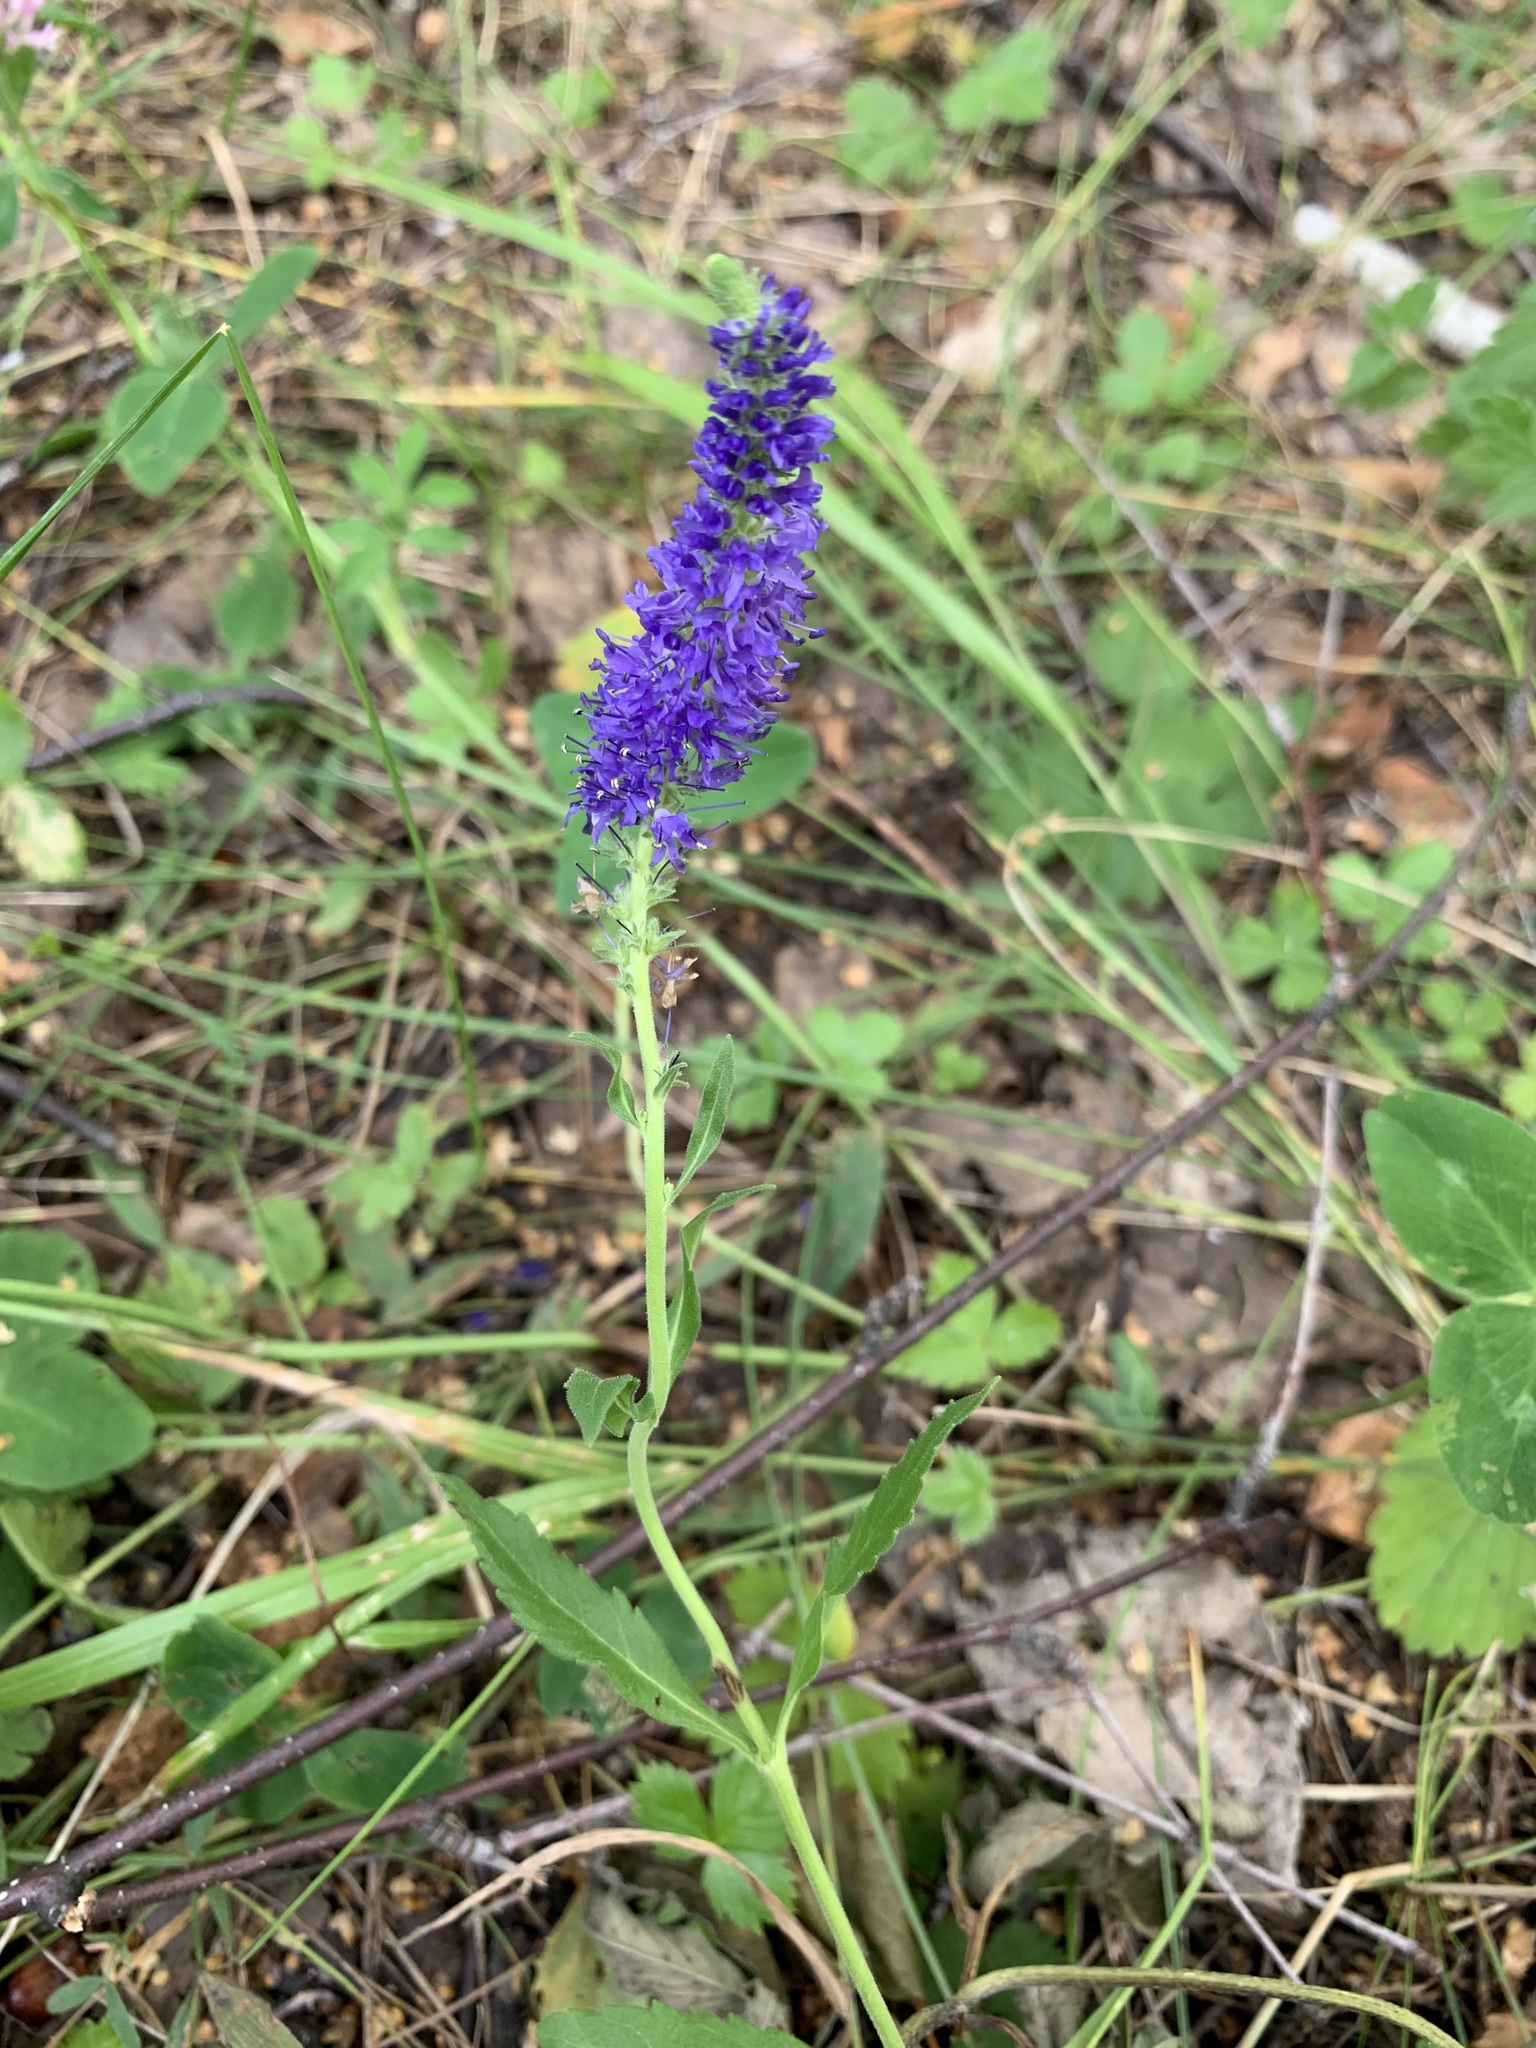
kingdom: Plantae
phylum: Tracheophyta
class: Magnoliopsida
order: Lamiales
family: Plantaginaceae
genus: Veronica
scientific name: Veronica spicata
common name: Spiked speedwell
